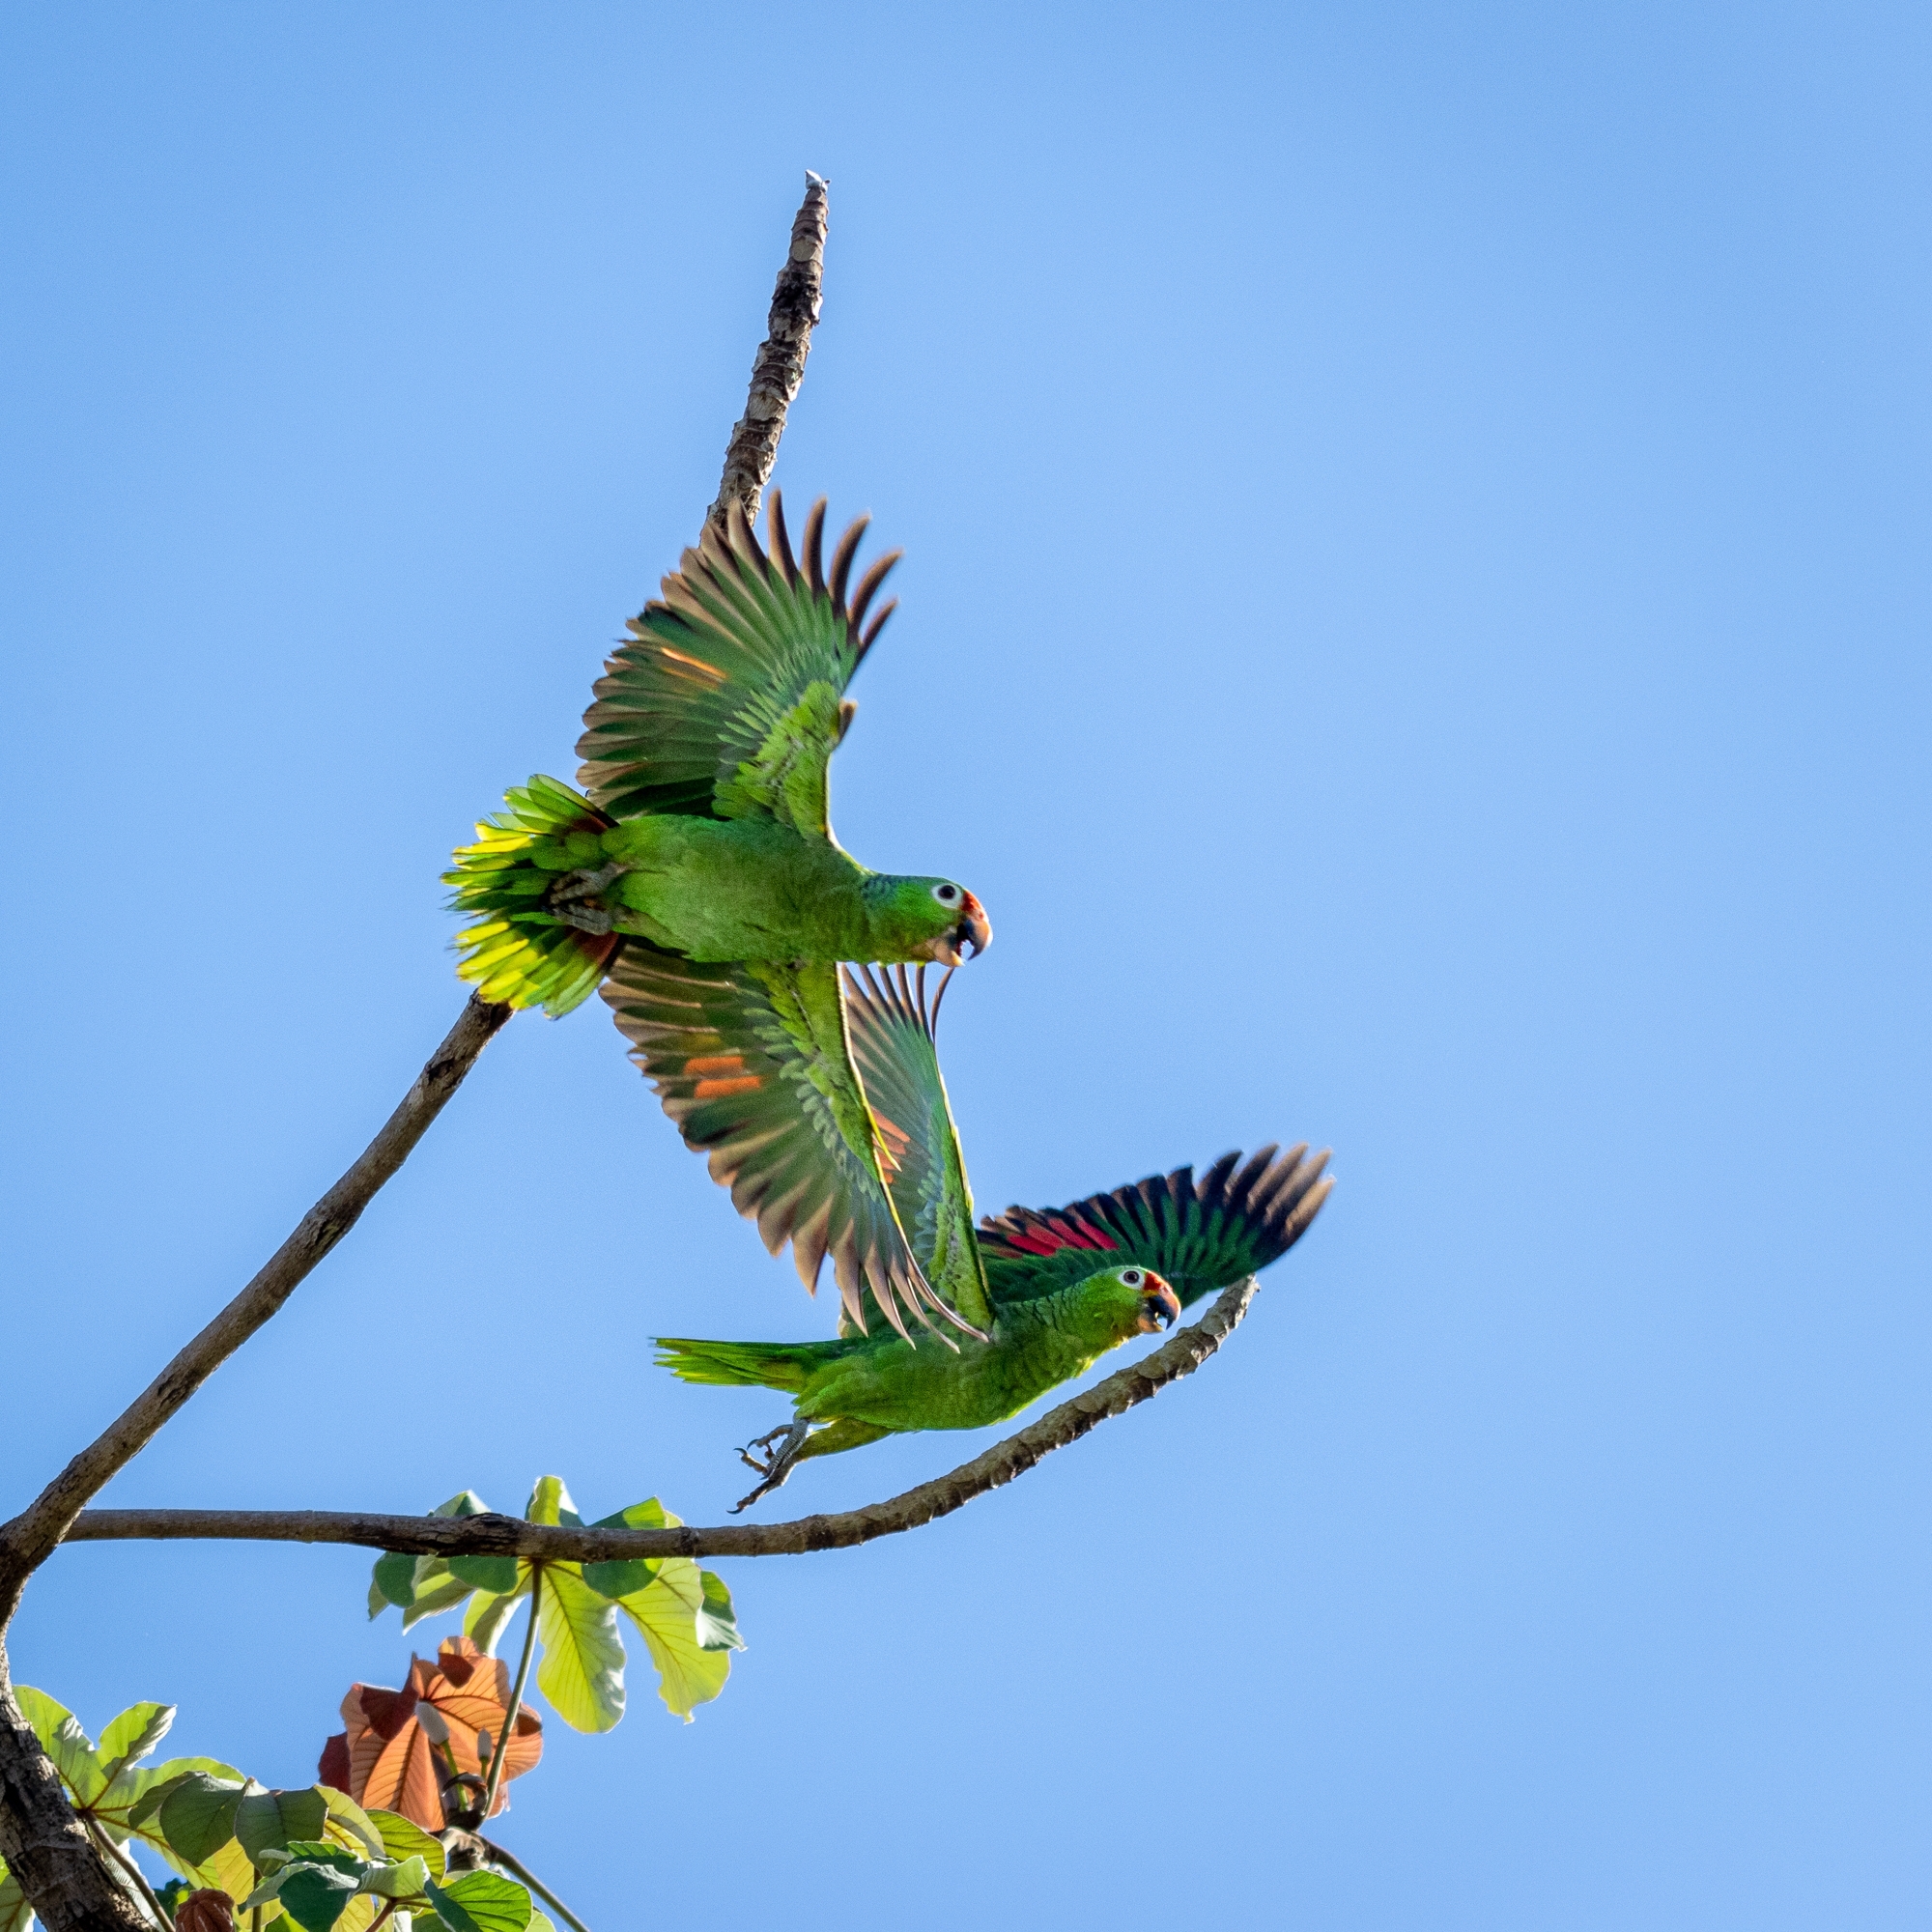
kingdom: Animalia
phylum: Chordata
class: Aves
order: Psittaciformes
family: Psittacidae
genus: Amazona
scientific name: Amazona autumnalis
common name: Red-lored amazon
